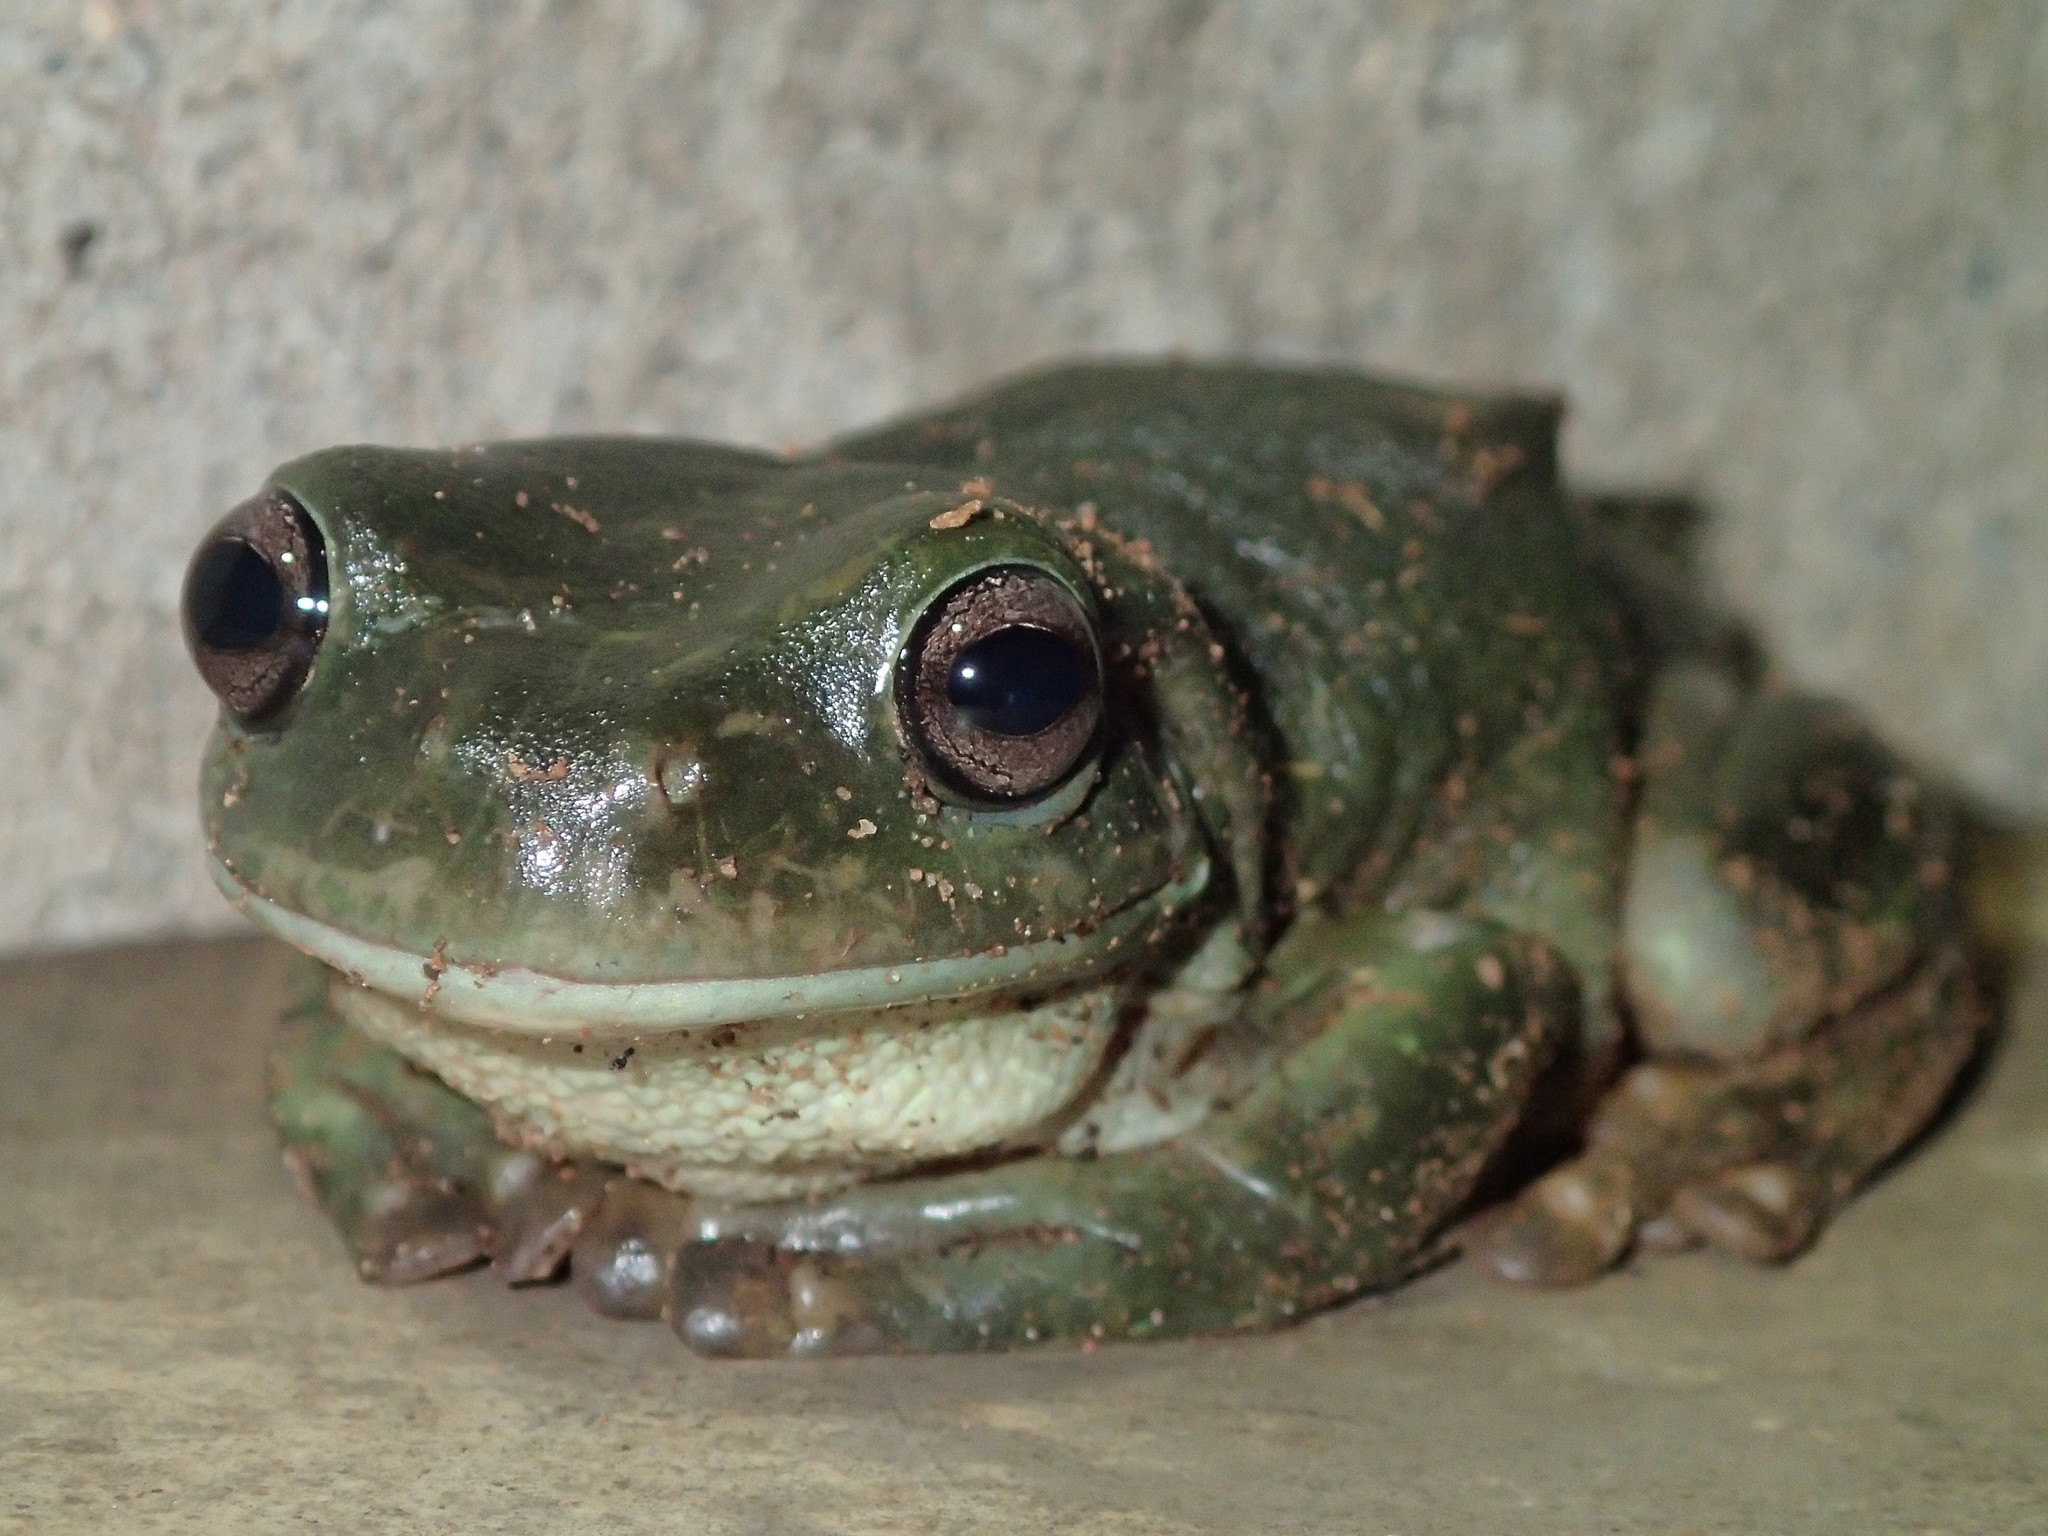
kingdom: Animalia
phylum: Chordata
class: Amphibia
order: Anura
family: Pelodryadidae
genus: Ranoidea
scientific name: Ranoidea caerulea
